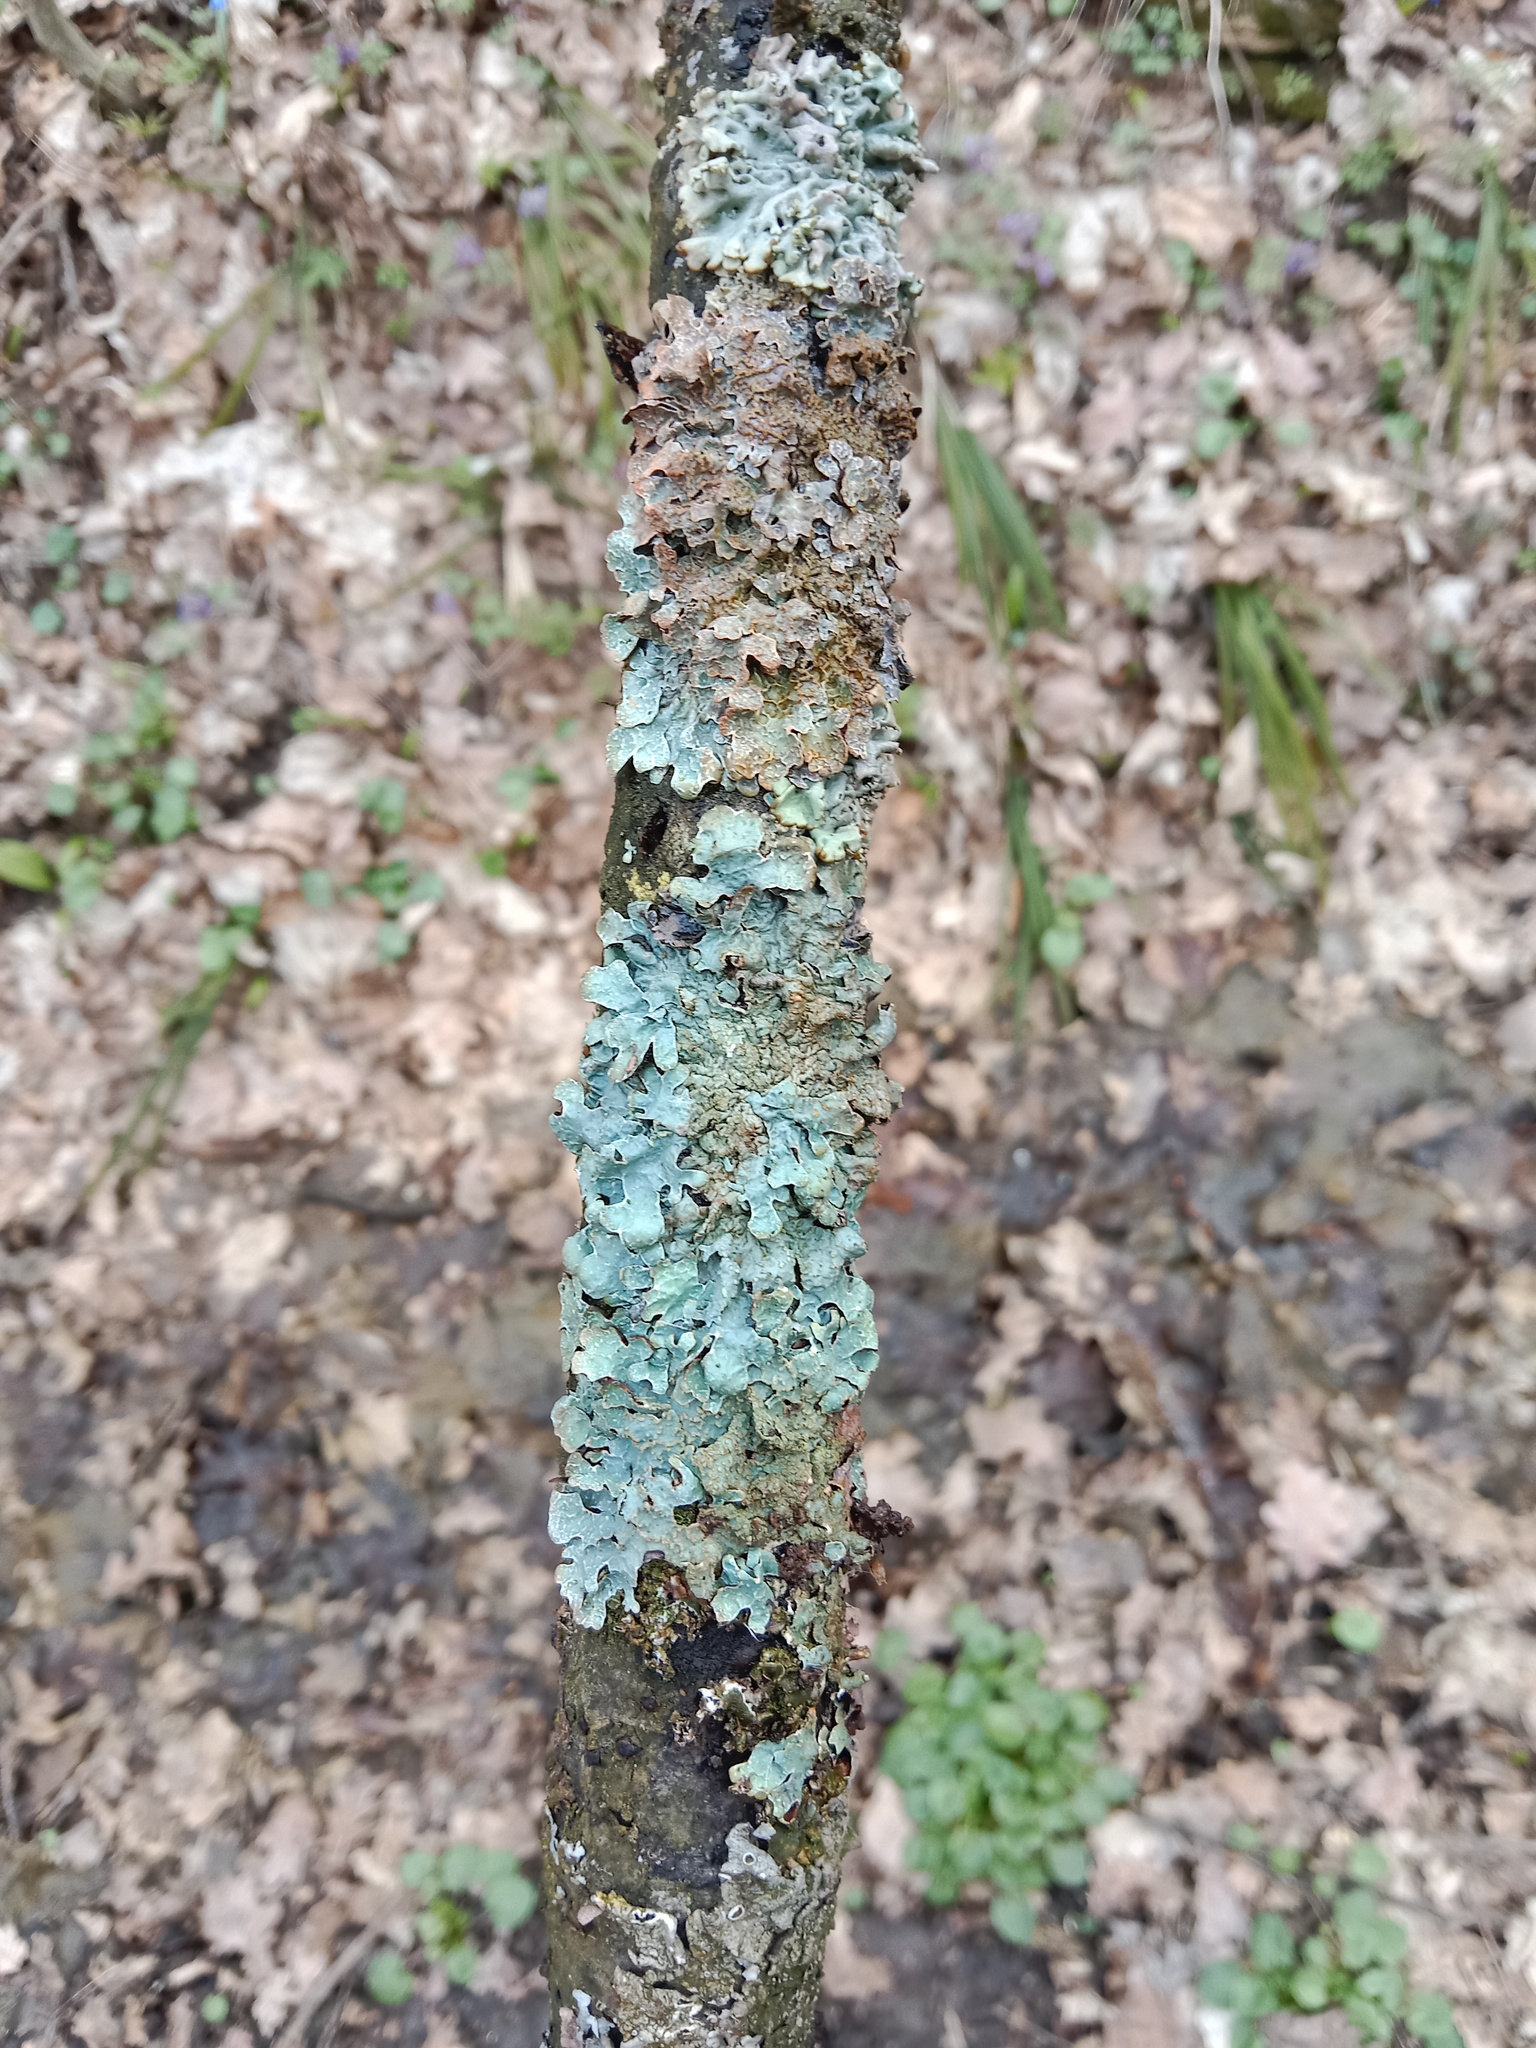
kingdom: Fungi
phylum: Ascomycota
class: Lecanoromycetes
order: Lecanorales
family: Parmeliaceae
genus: Parmelia
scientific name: Parmelia sulcata
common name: Netted shield lichen
